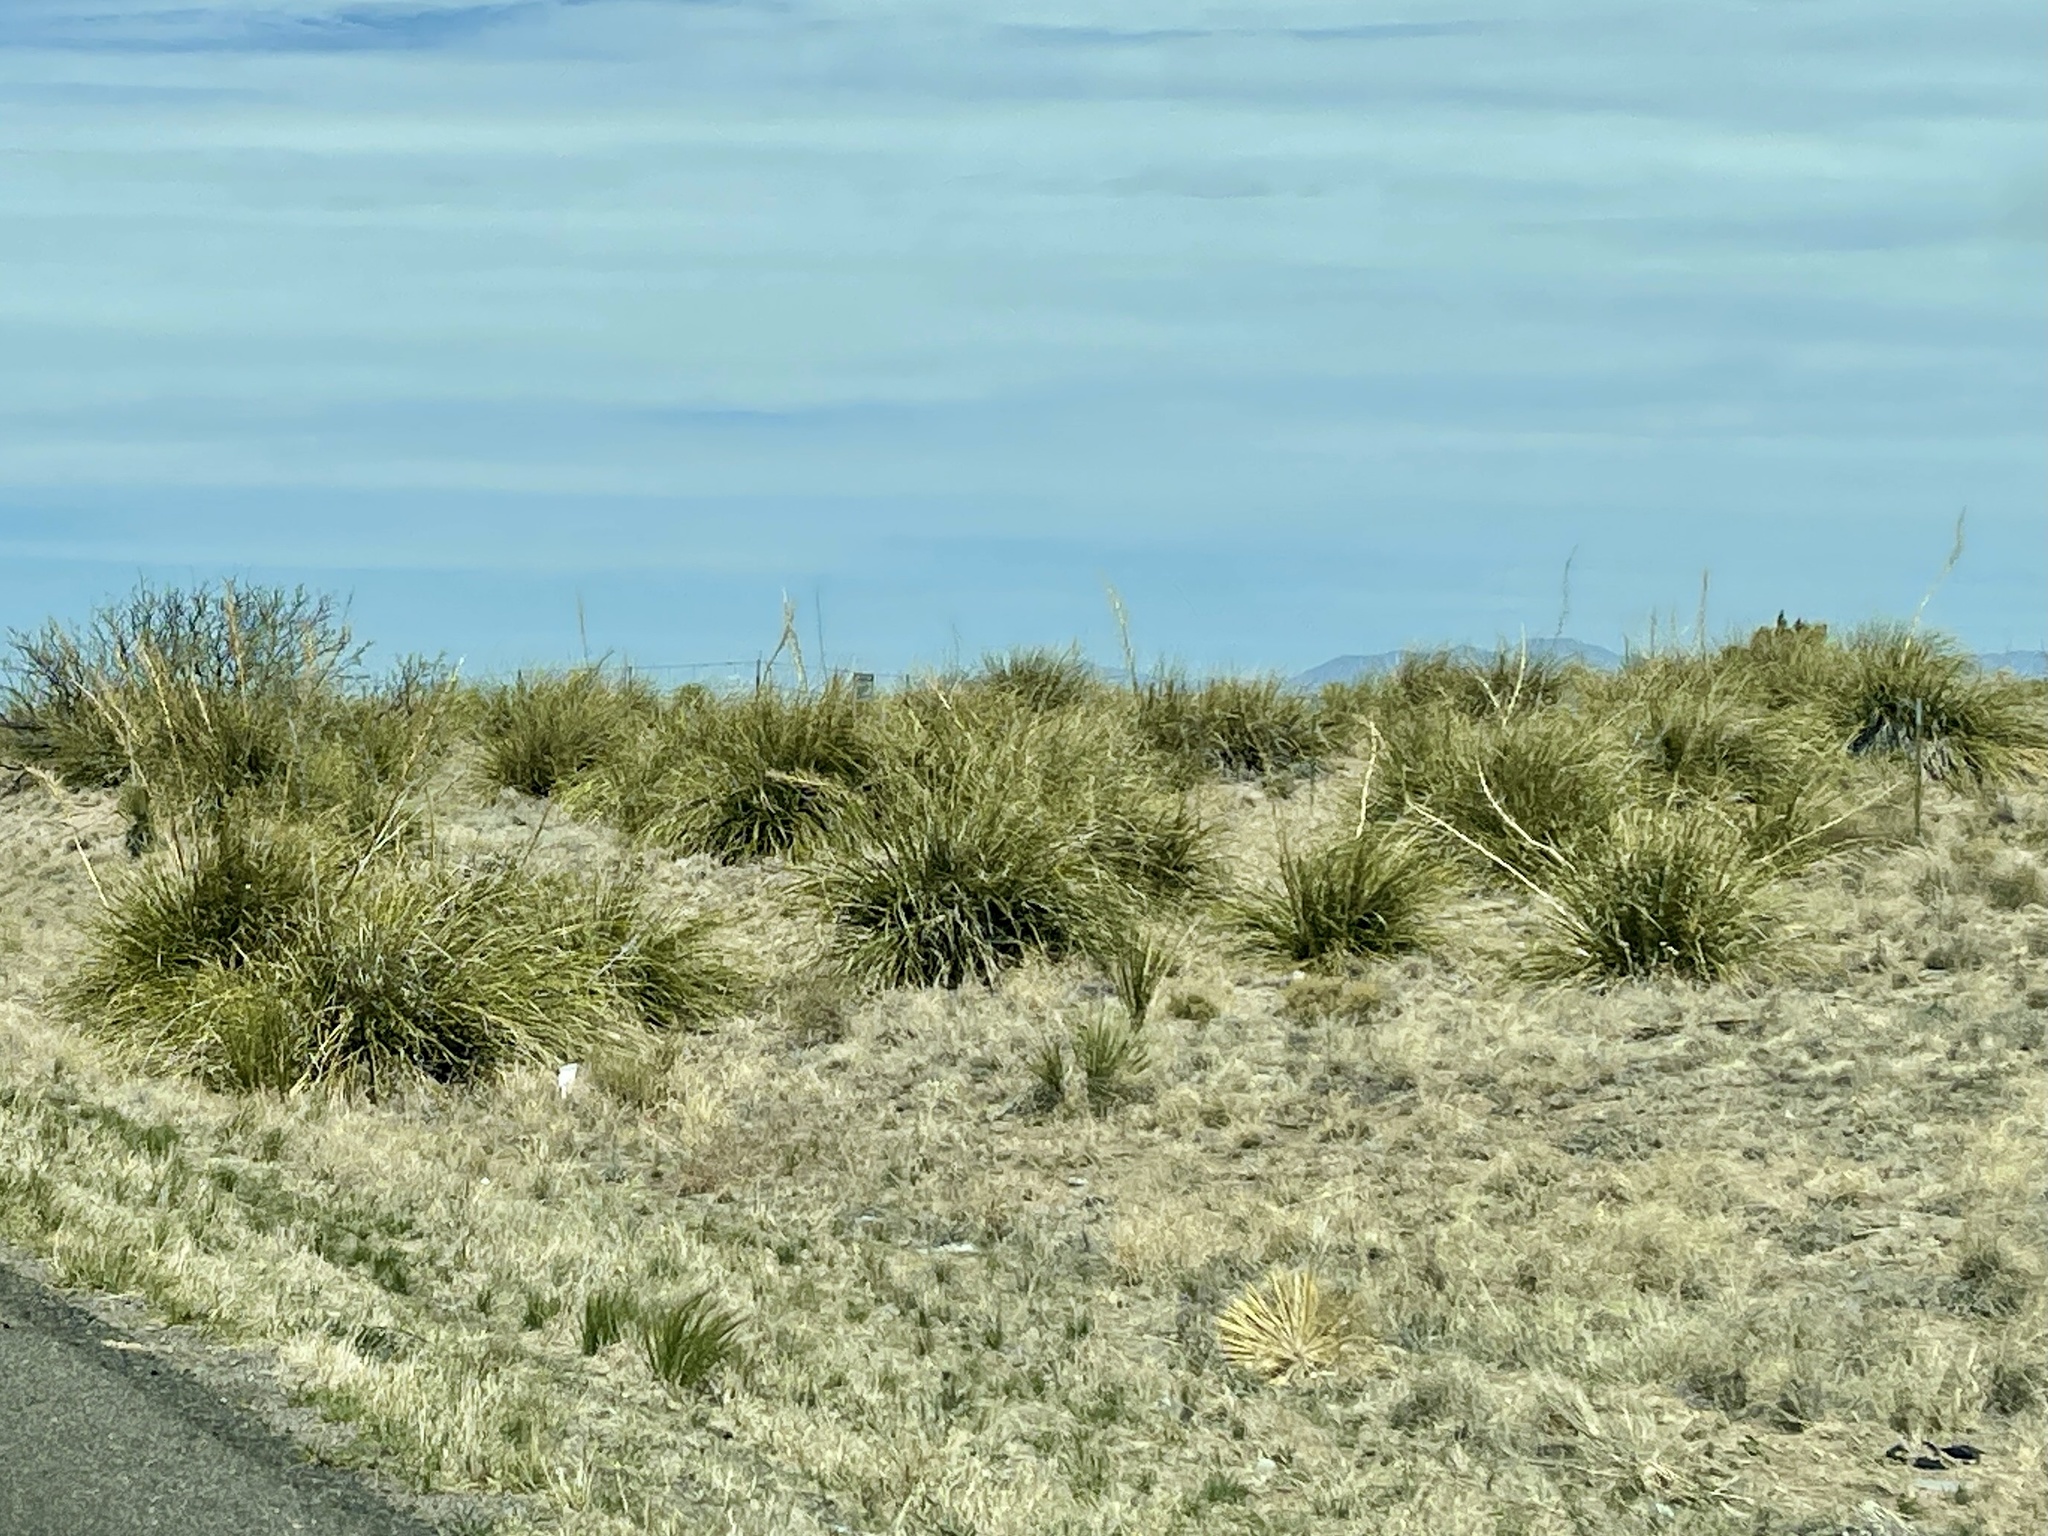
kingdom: Plantae
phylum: Tracheophyta
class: Liliopsida
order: Asparagales
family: Asparagaceae
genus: Nolina
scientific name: Nolina microcarpa
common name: Bear-grass
